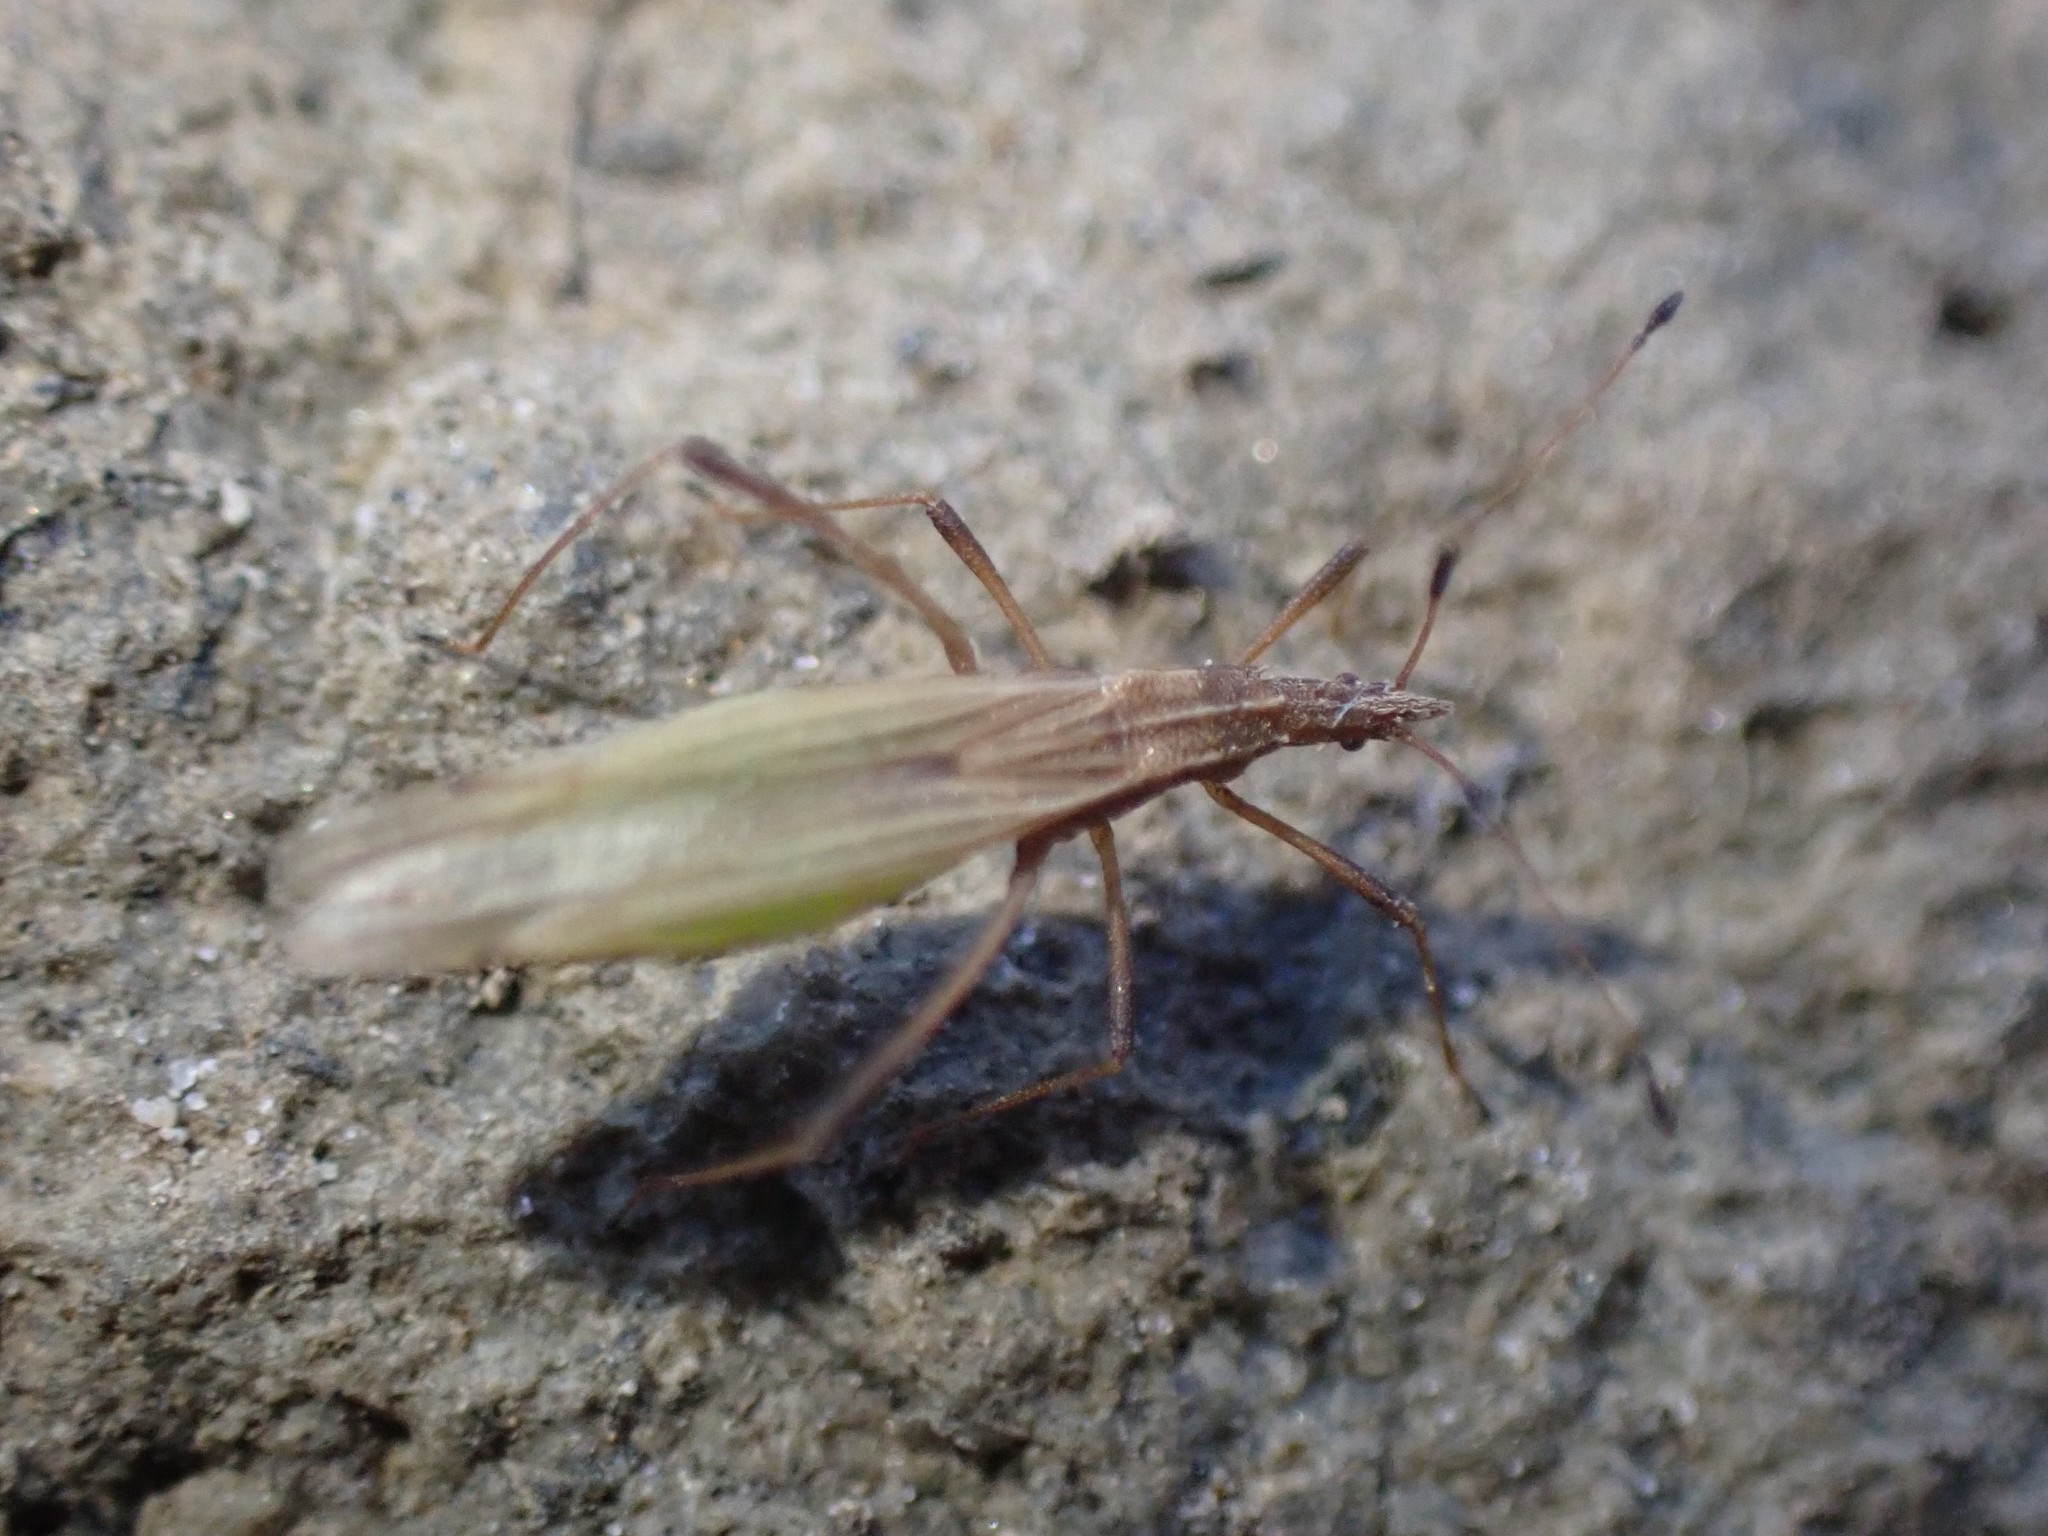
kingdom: Animalia
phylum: Arthropoda
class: Insecta
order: Hemiptera
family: Berytidae
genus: Berytinus
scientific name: Berytinus minor
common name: Stilt bug
